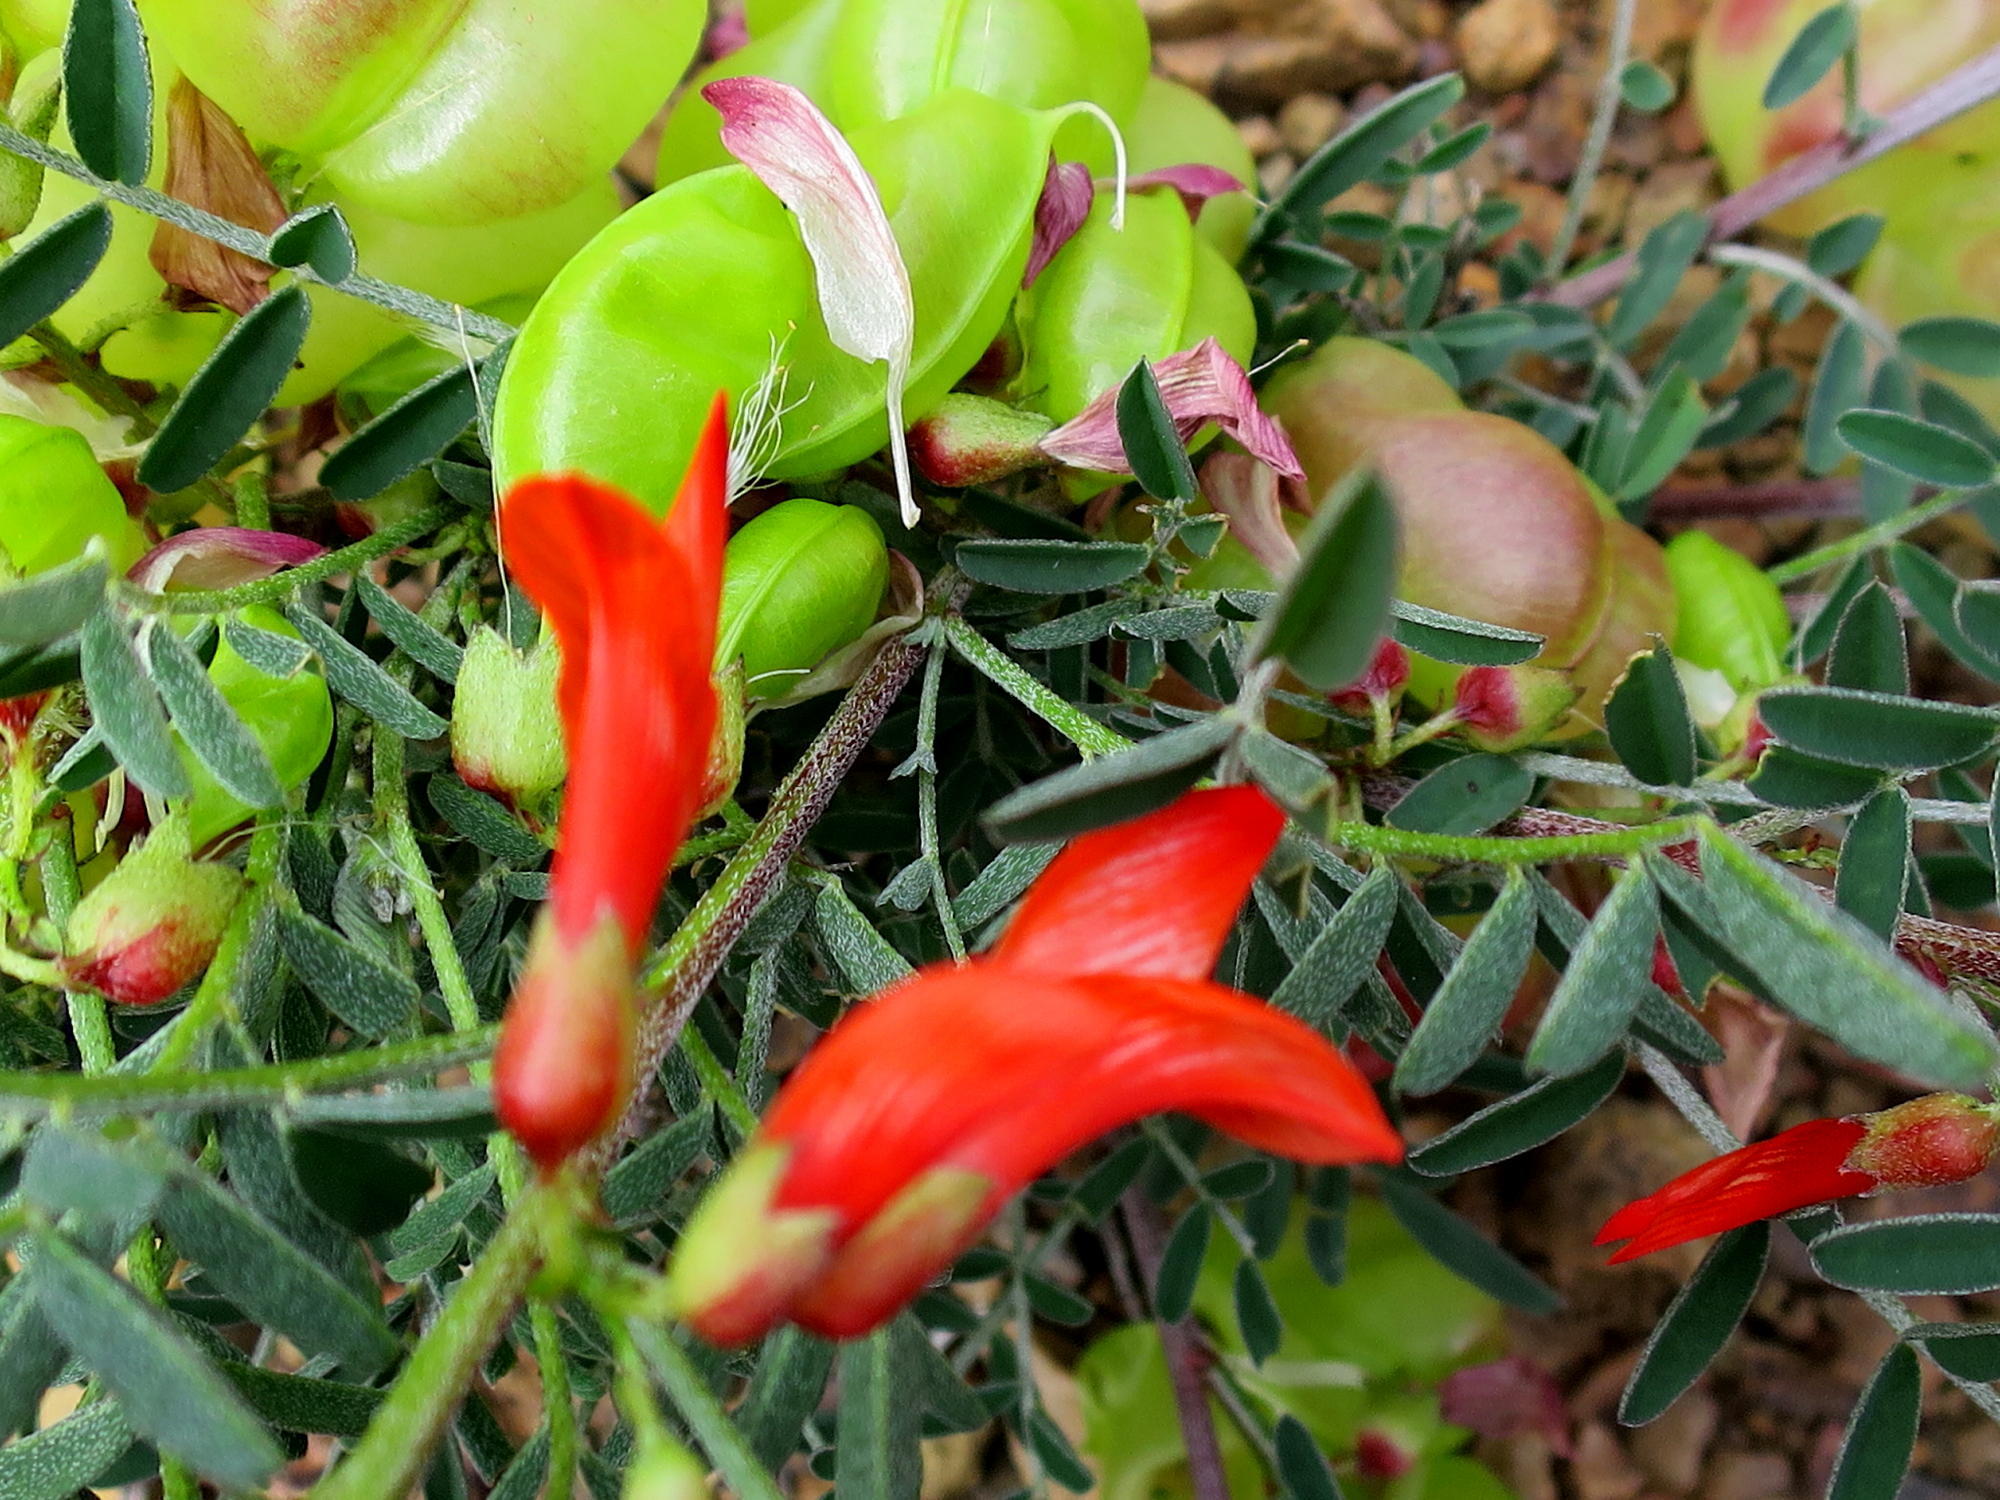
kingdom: Plantae
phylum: Tracheophyta
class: Magnoliopsida
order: Fabales
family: Fabaceae
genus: Lessertia
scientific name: Lessertia frutescens
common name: Balloon-pea
